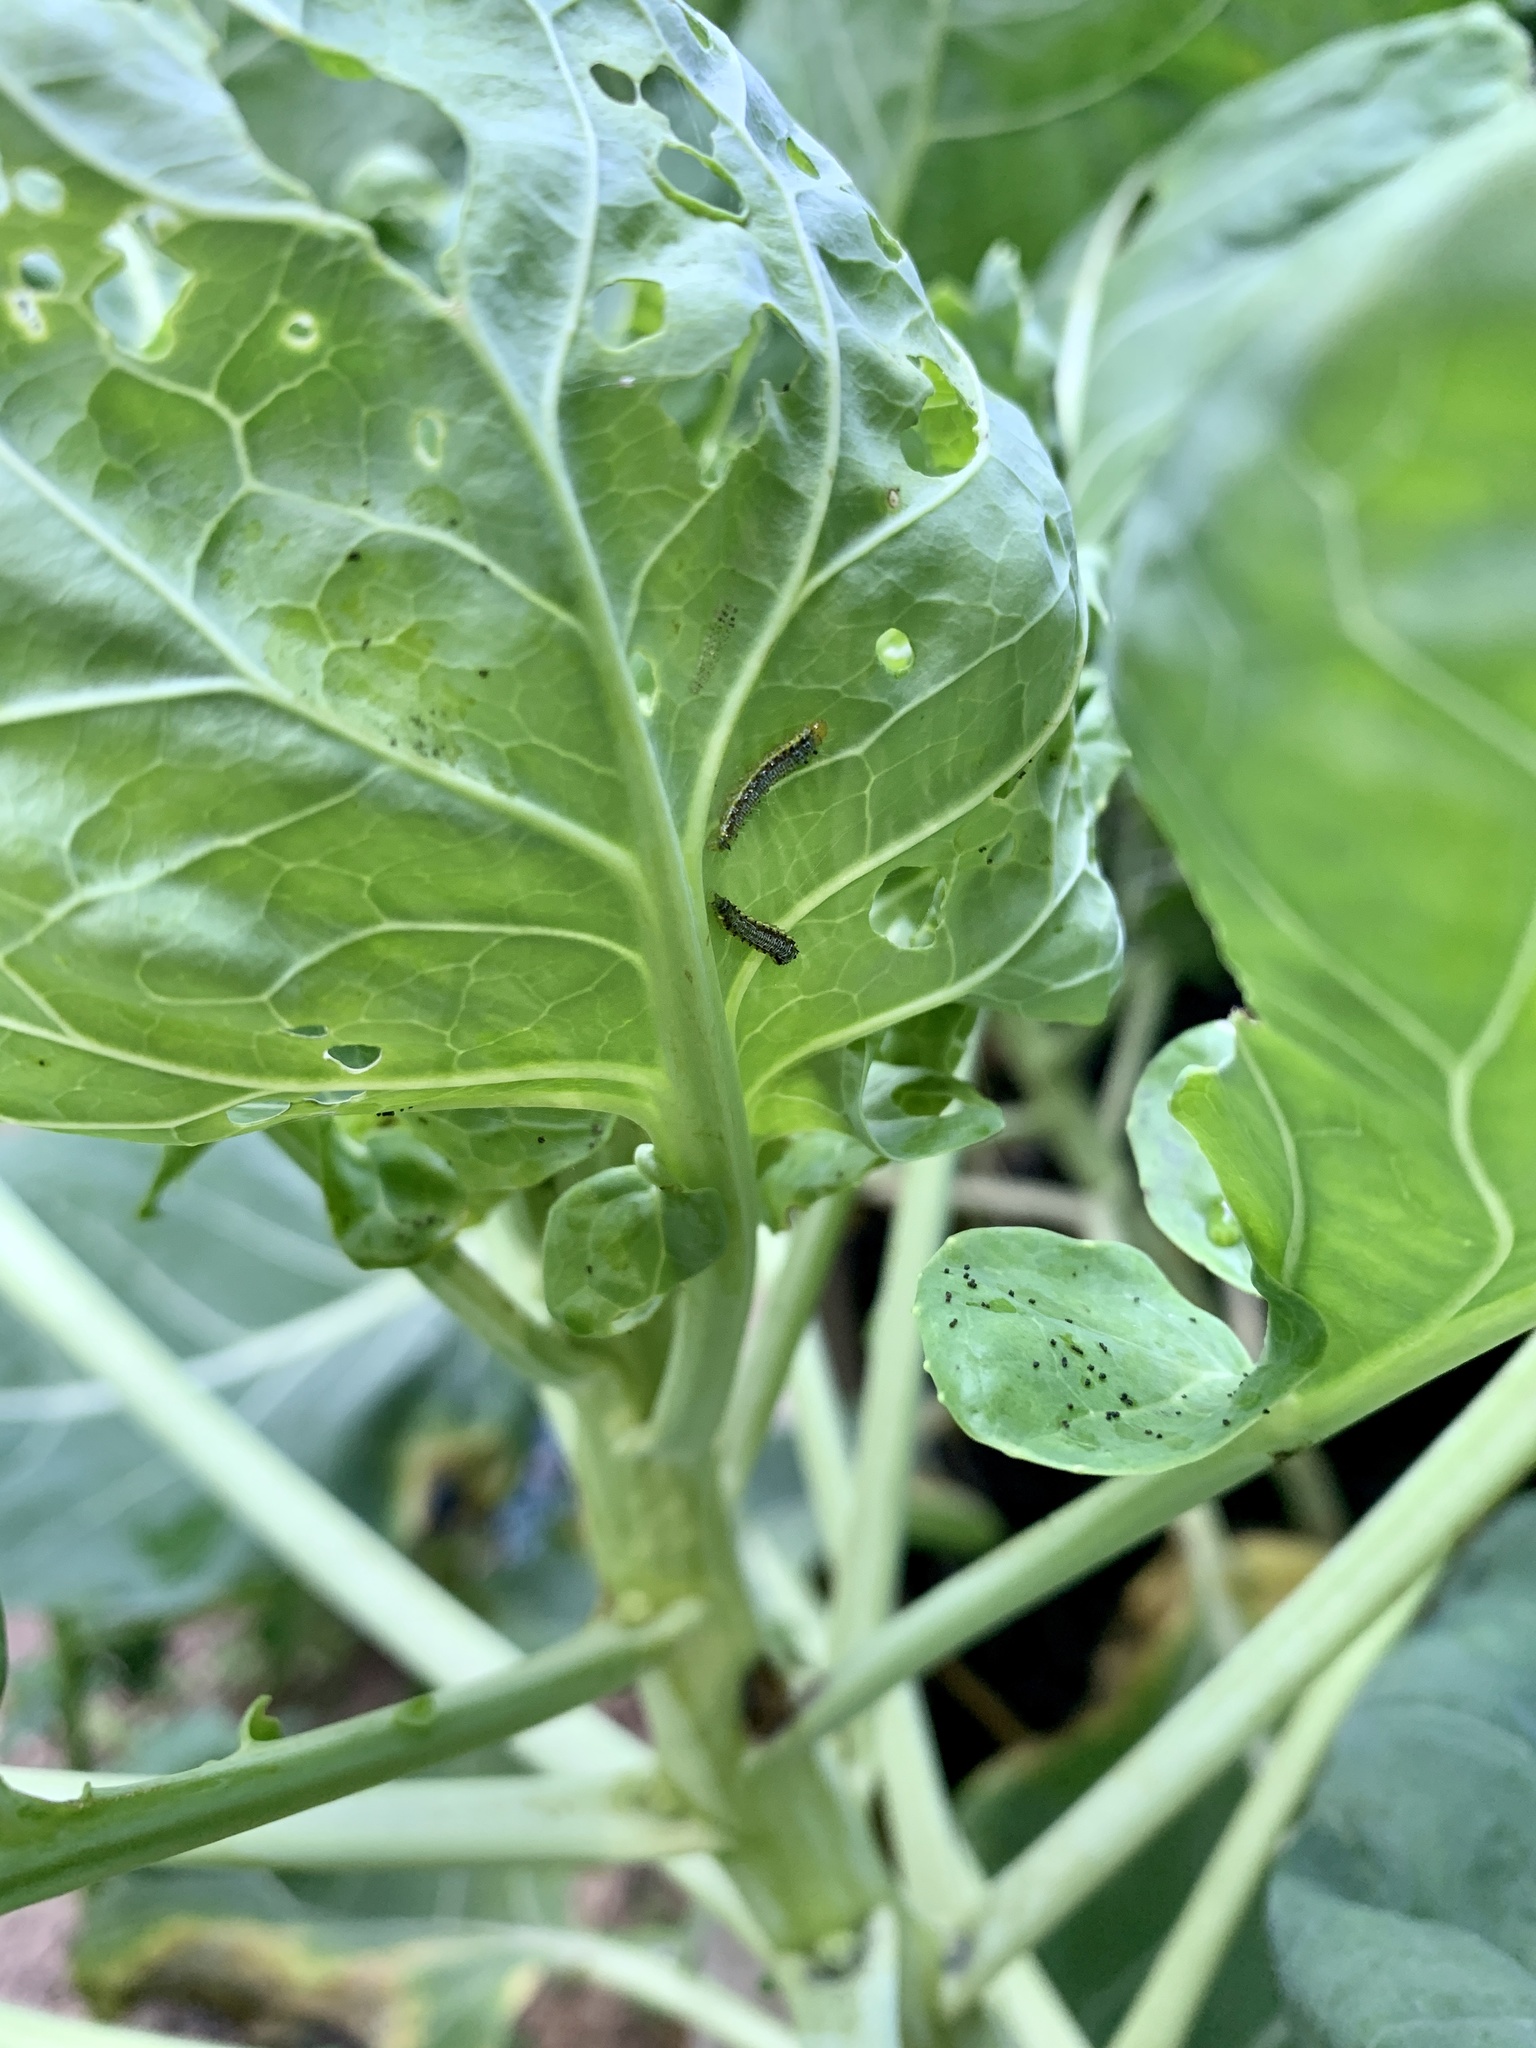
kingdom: Animalia
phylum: Arthropoda
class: Insecta
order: Lepidoptera
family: Crambidae
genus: Evergestis
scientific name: Evergestis rimosalis
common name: Cross-striped cabbageworm moth
